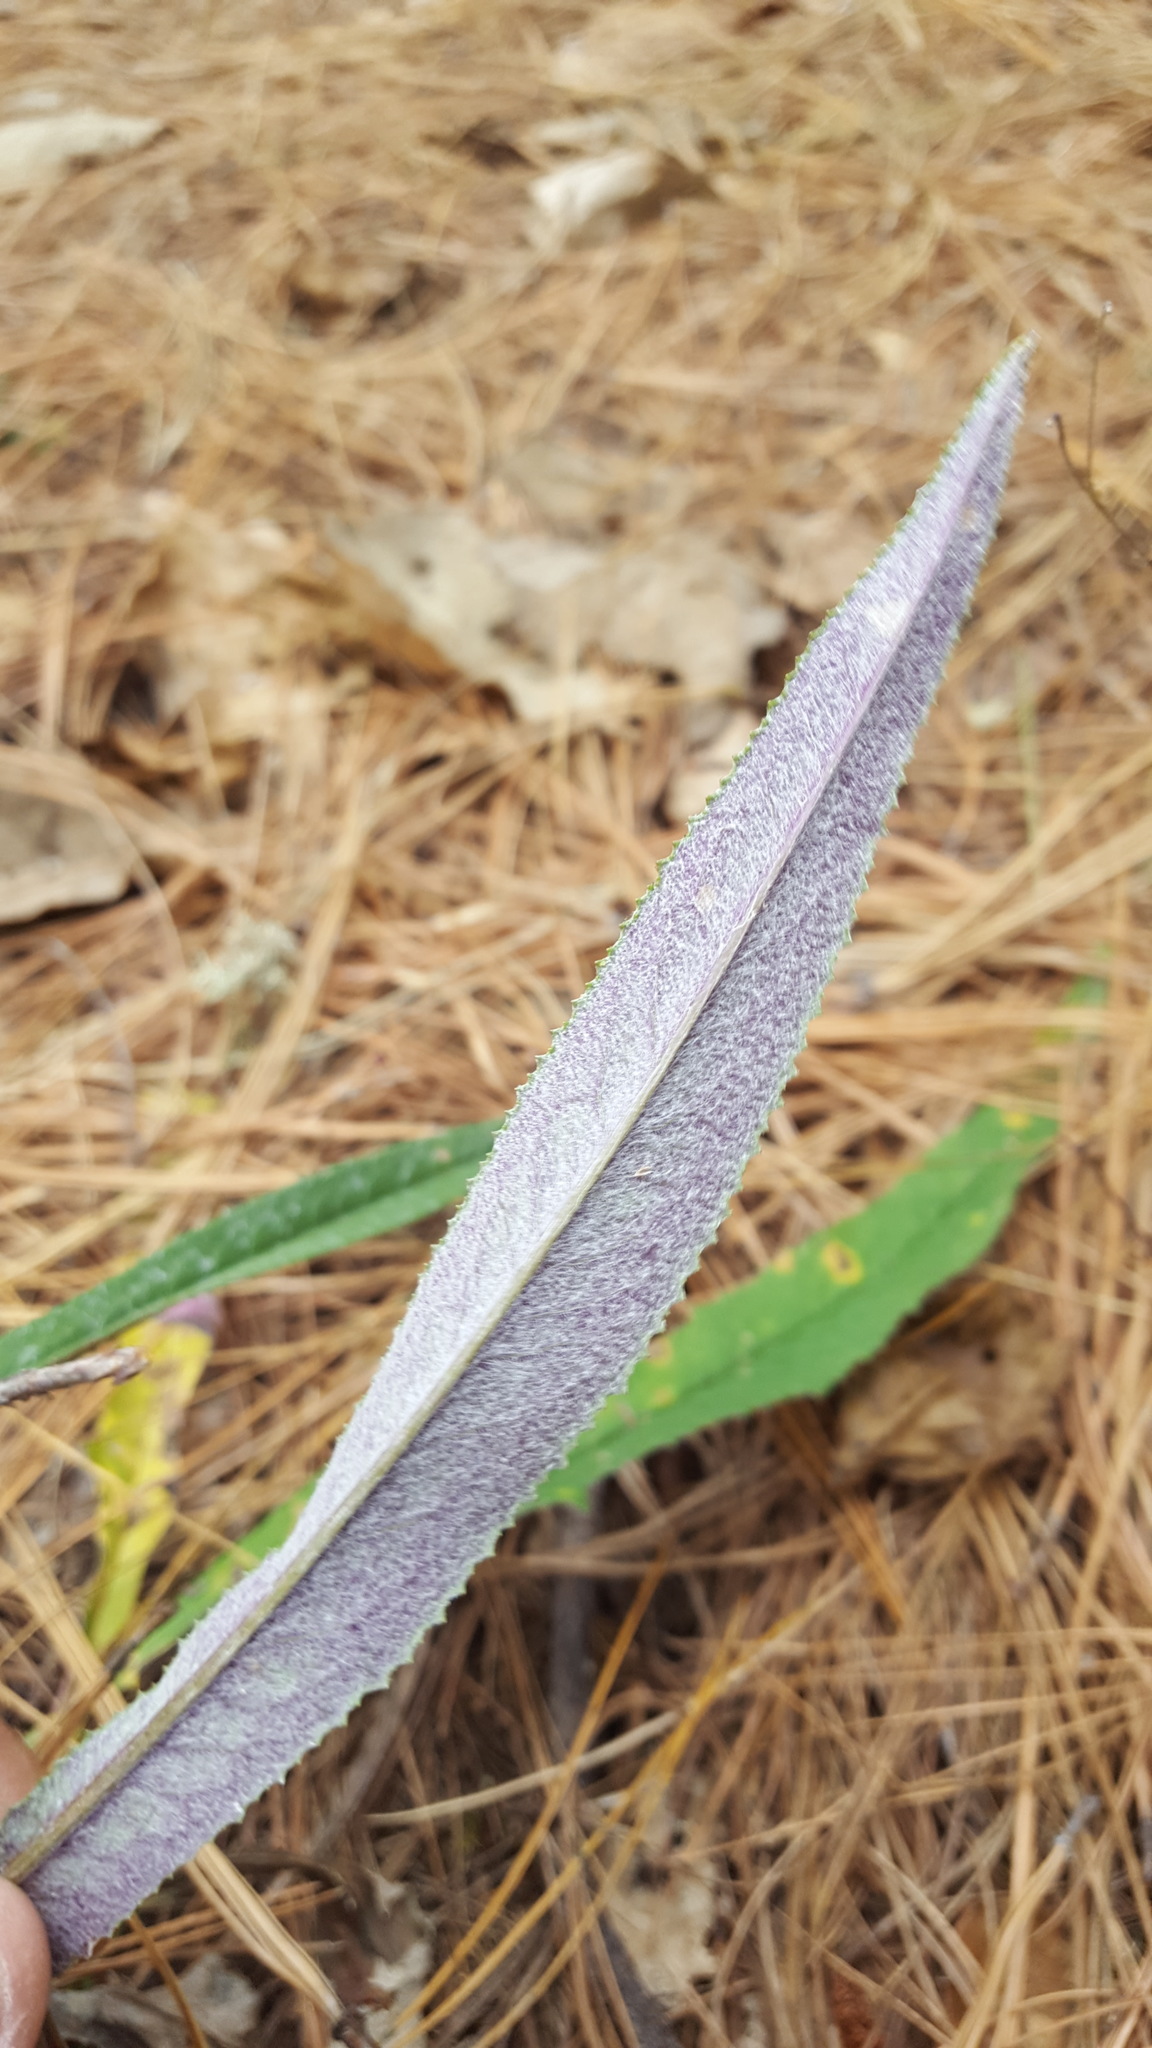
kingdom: Plantae
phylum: Tracheophyta
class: Magnoliopsida
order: Asterales
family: Asteraceae
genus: Senecio
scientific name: Senecio conzattii
